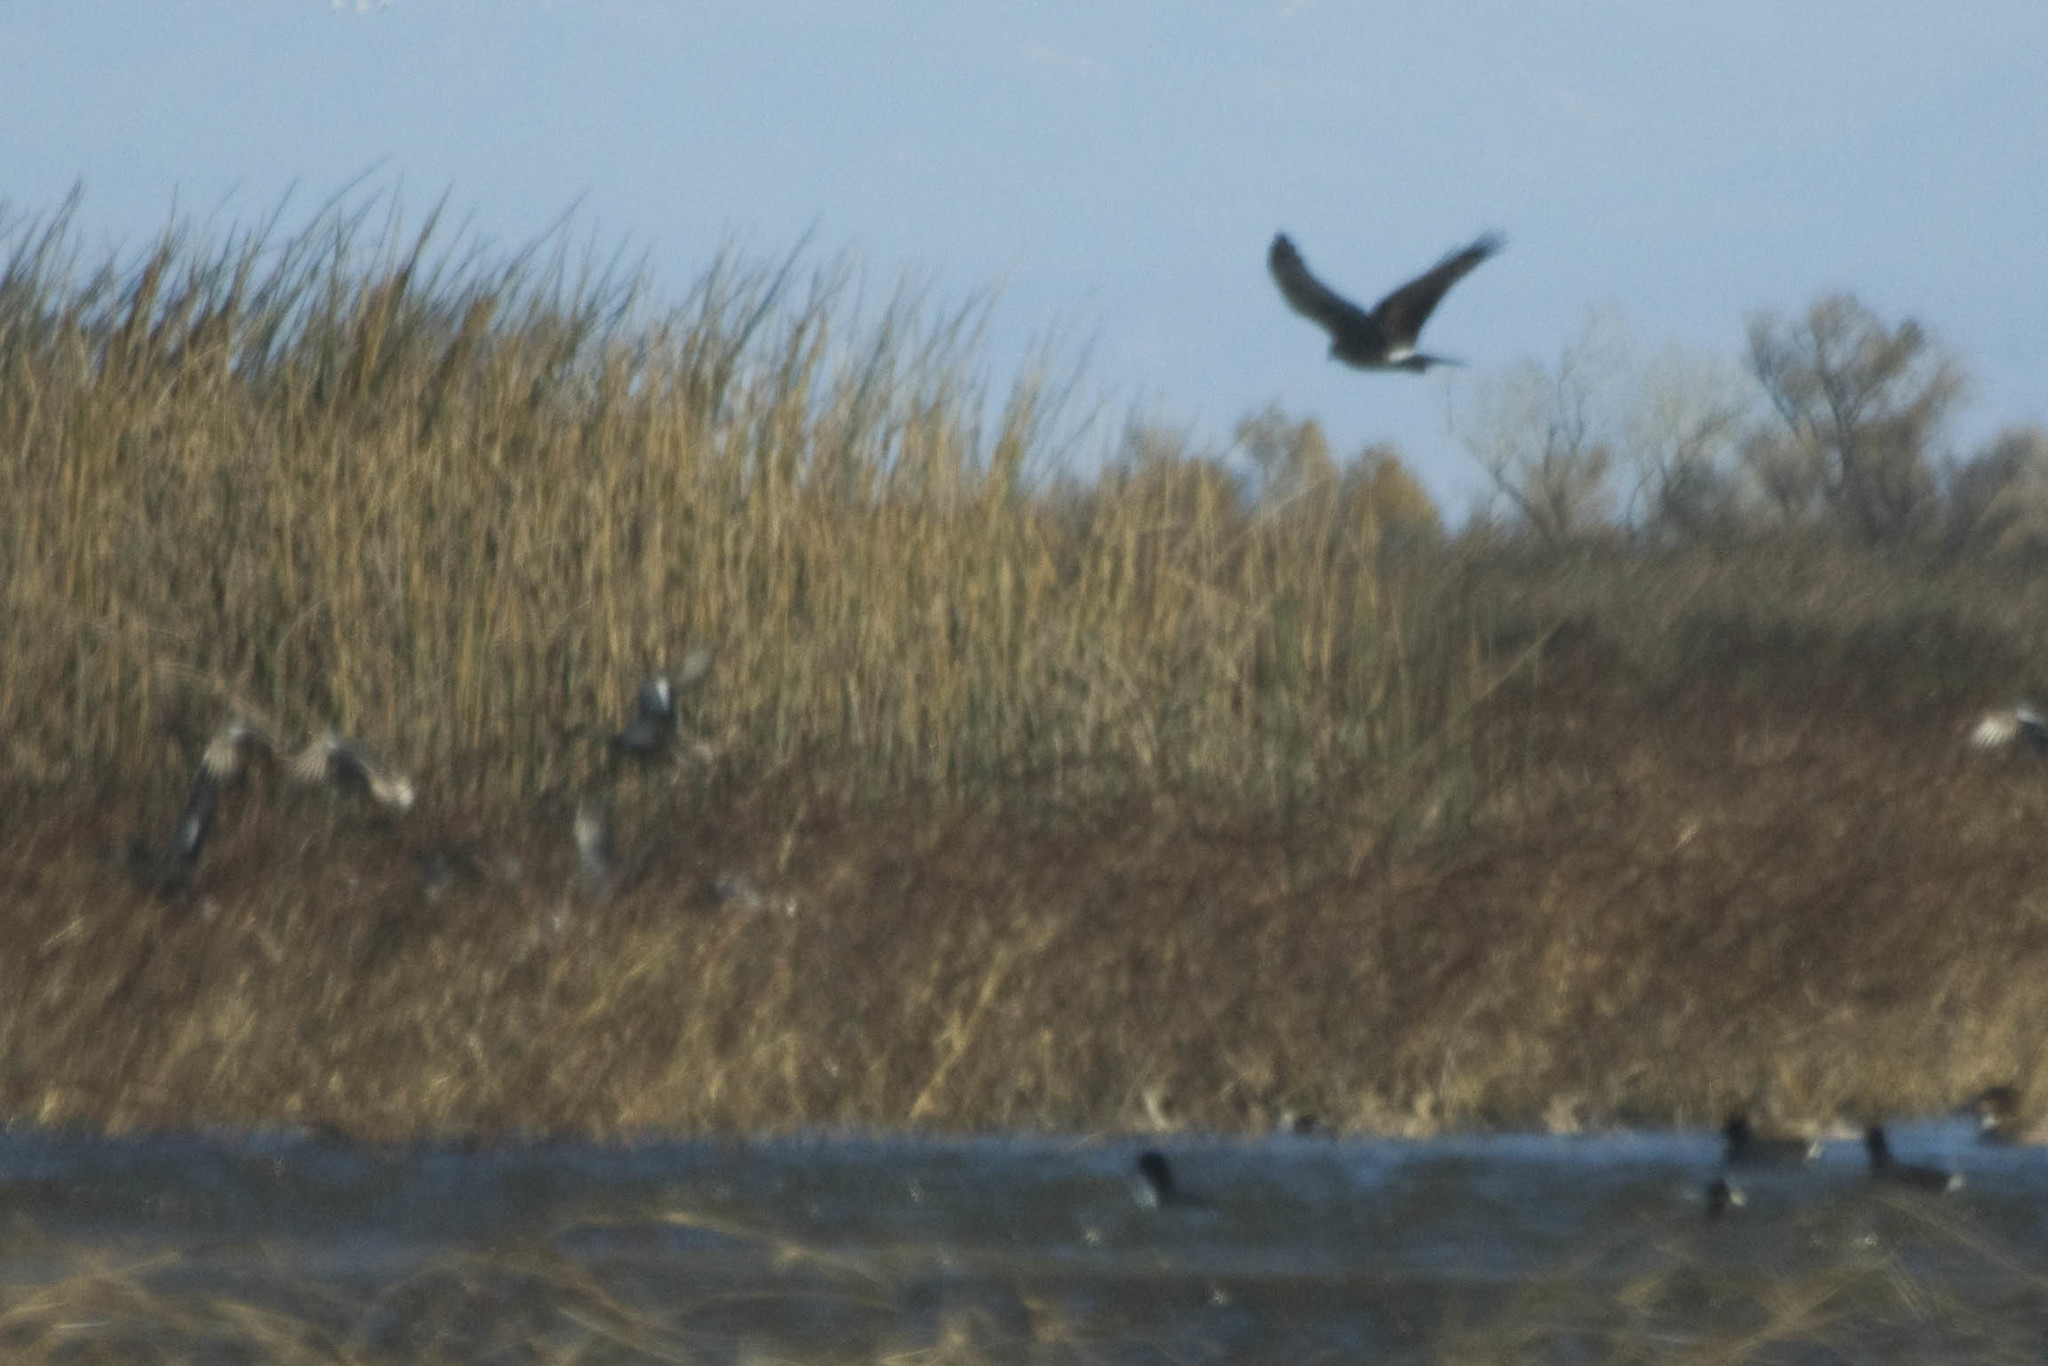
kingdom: Animalia
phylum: Chordata
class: Aves
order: Accipitriformes
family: Accipitridae
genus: Circus
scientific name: Circus cyaneus
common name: Hen harrier
